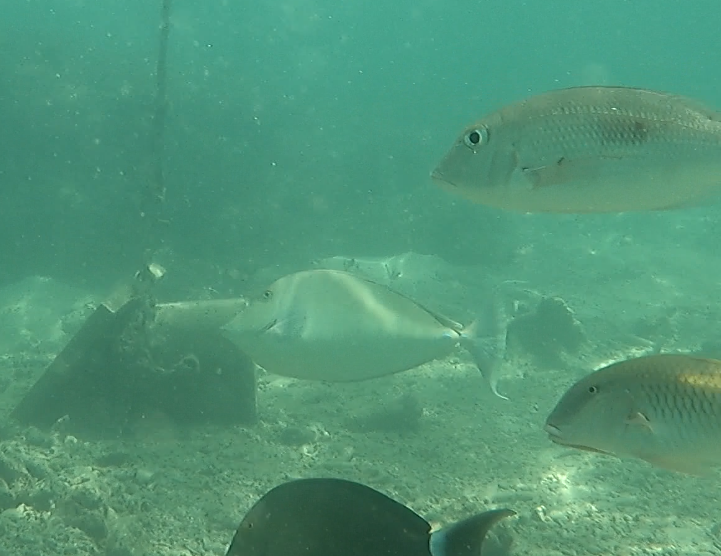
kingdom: Animalia
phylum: Chordata
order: Perciformes
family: Acanthuridae
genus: Naso
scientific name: Naso unicornis
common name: Bluespine unicornfish
